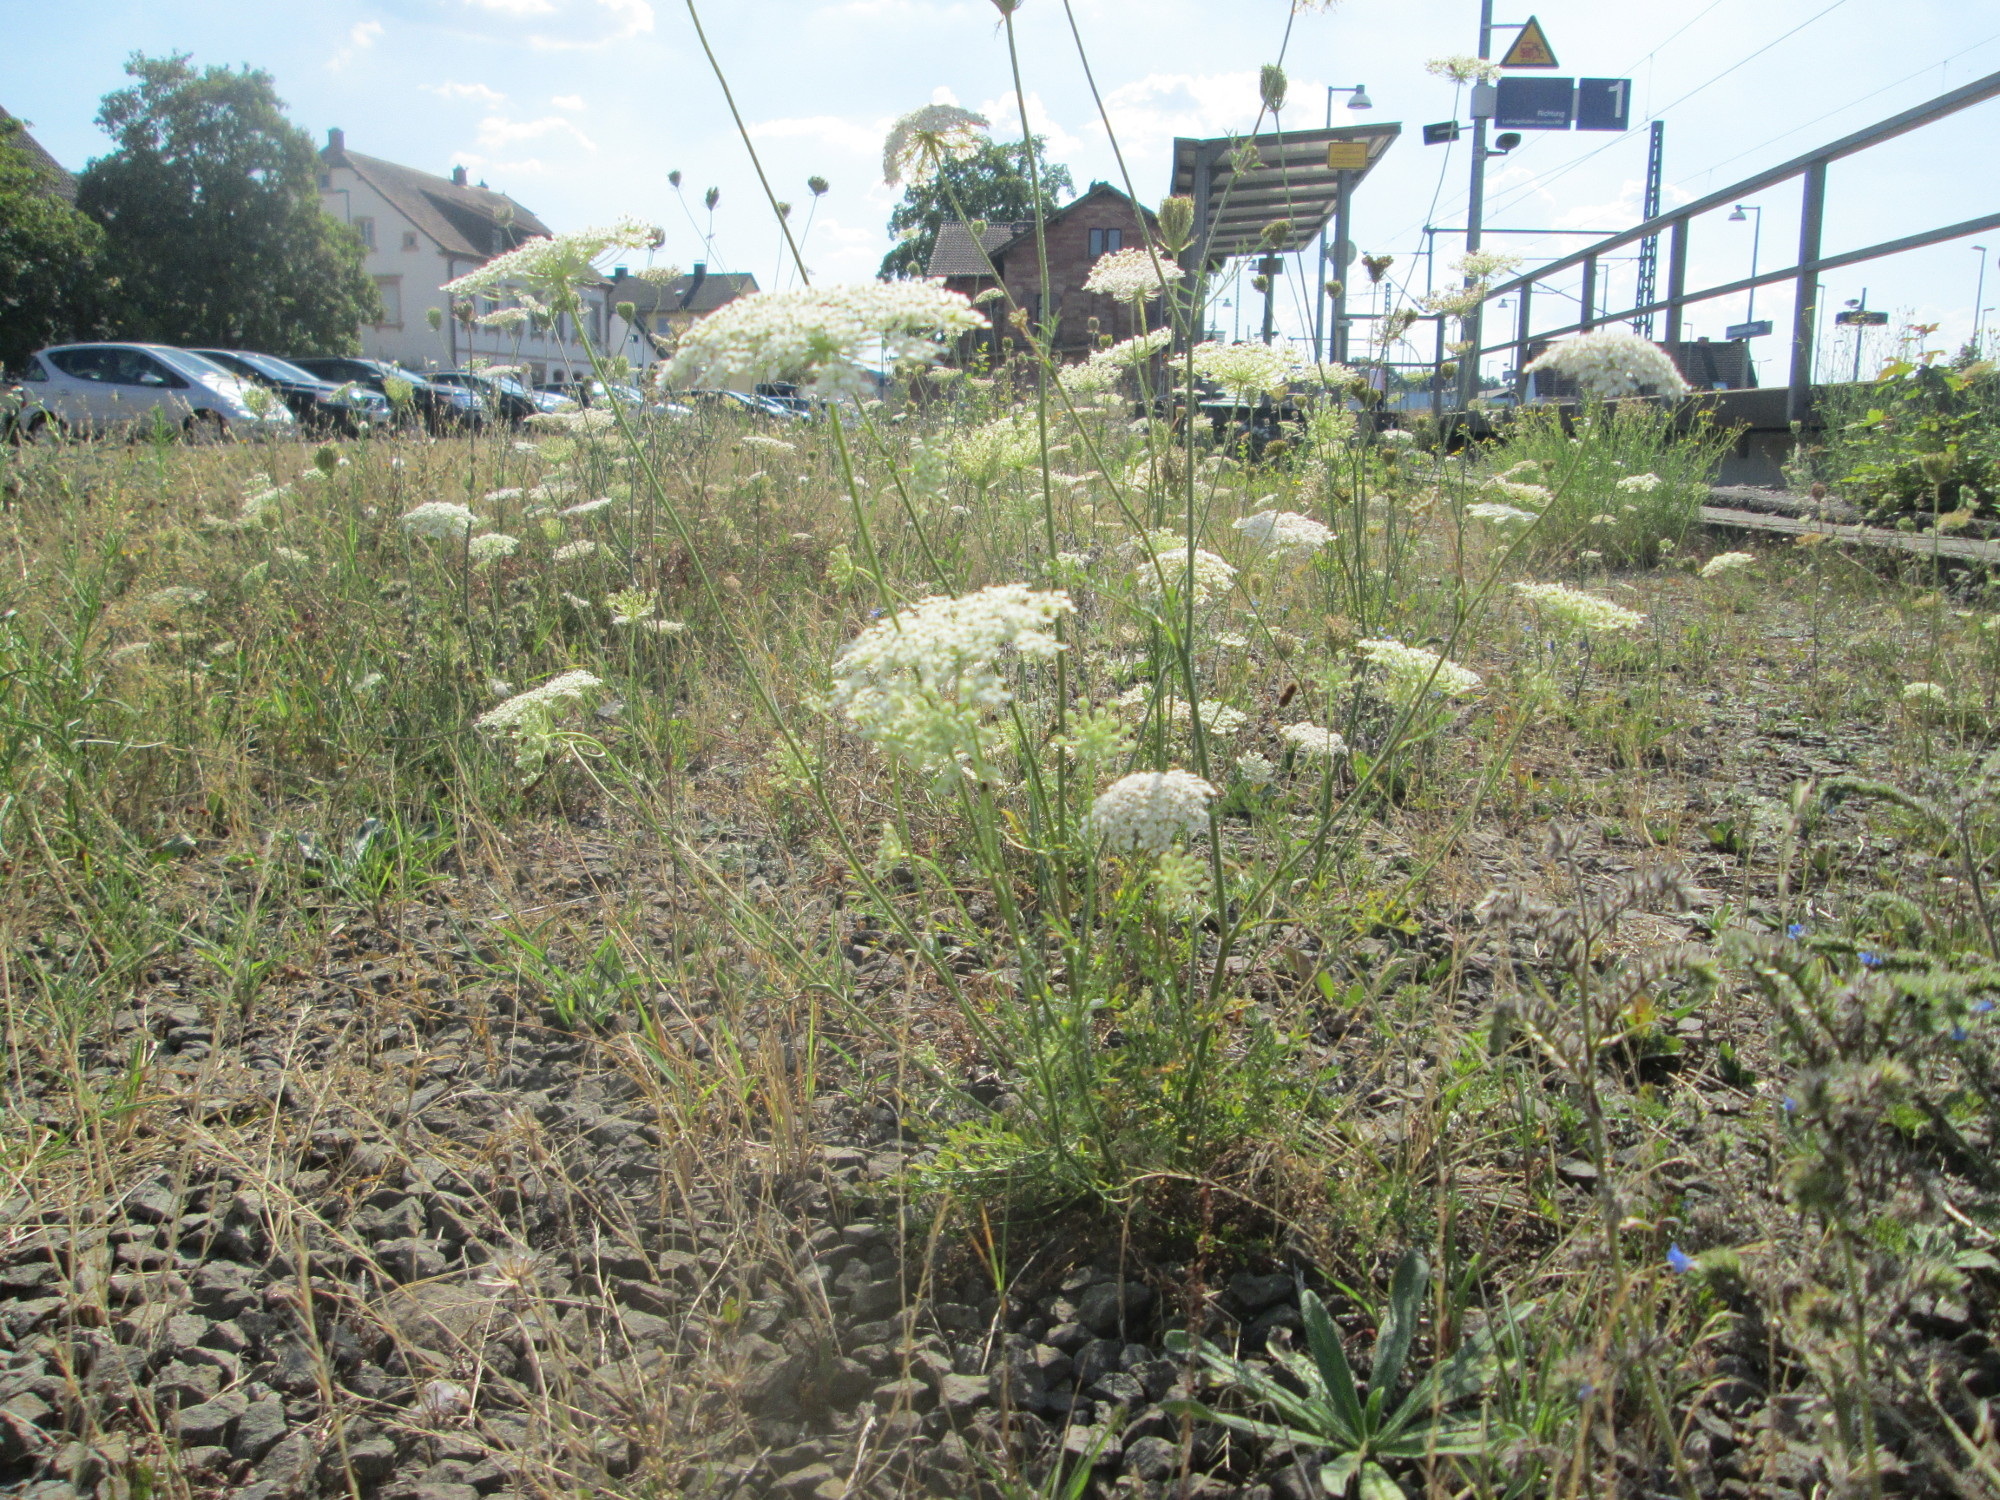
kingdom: Plantae
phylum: Tracheophyta
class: Magnoliopsida
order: Apiales
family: Apiaceae
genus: Daucus
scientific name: Daucus carota
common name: Wild carrot
